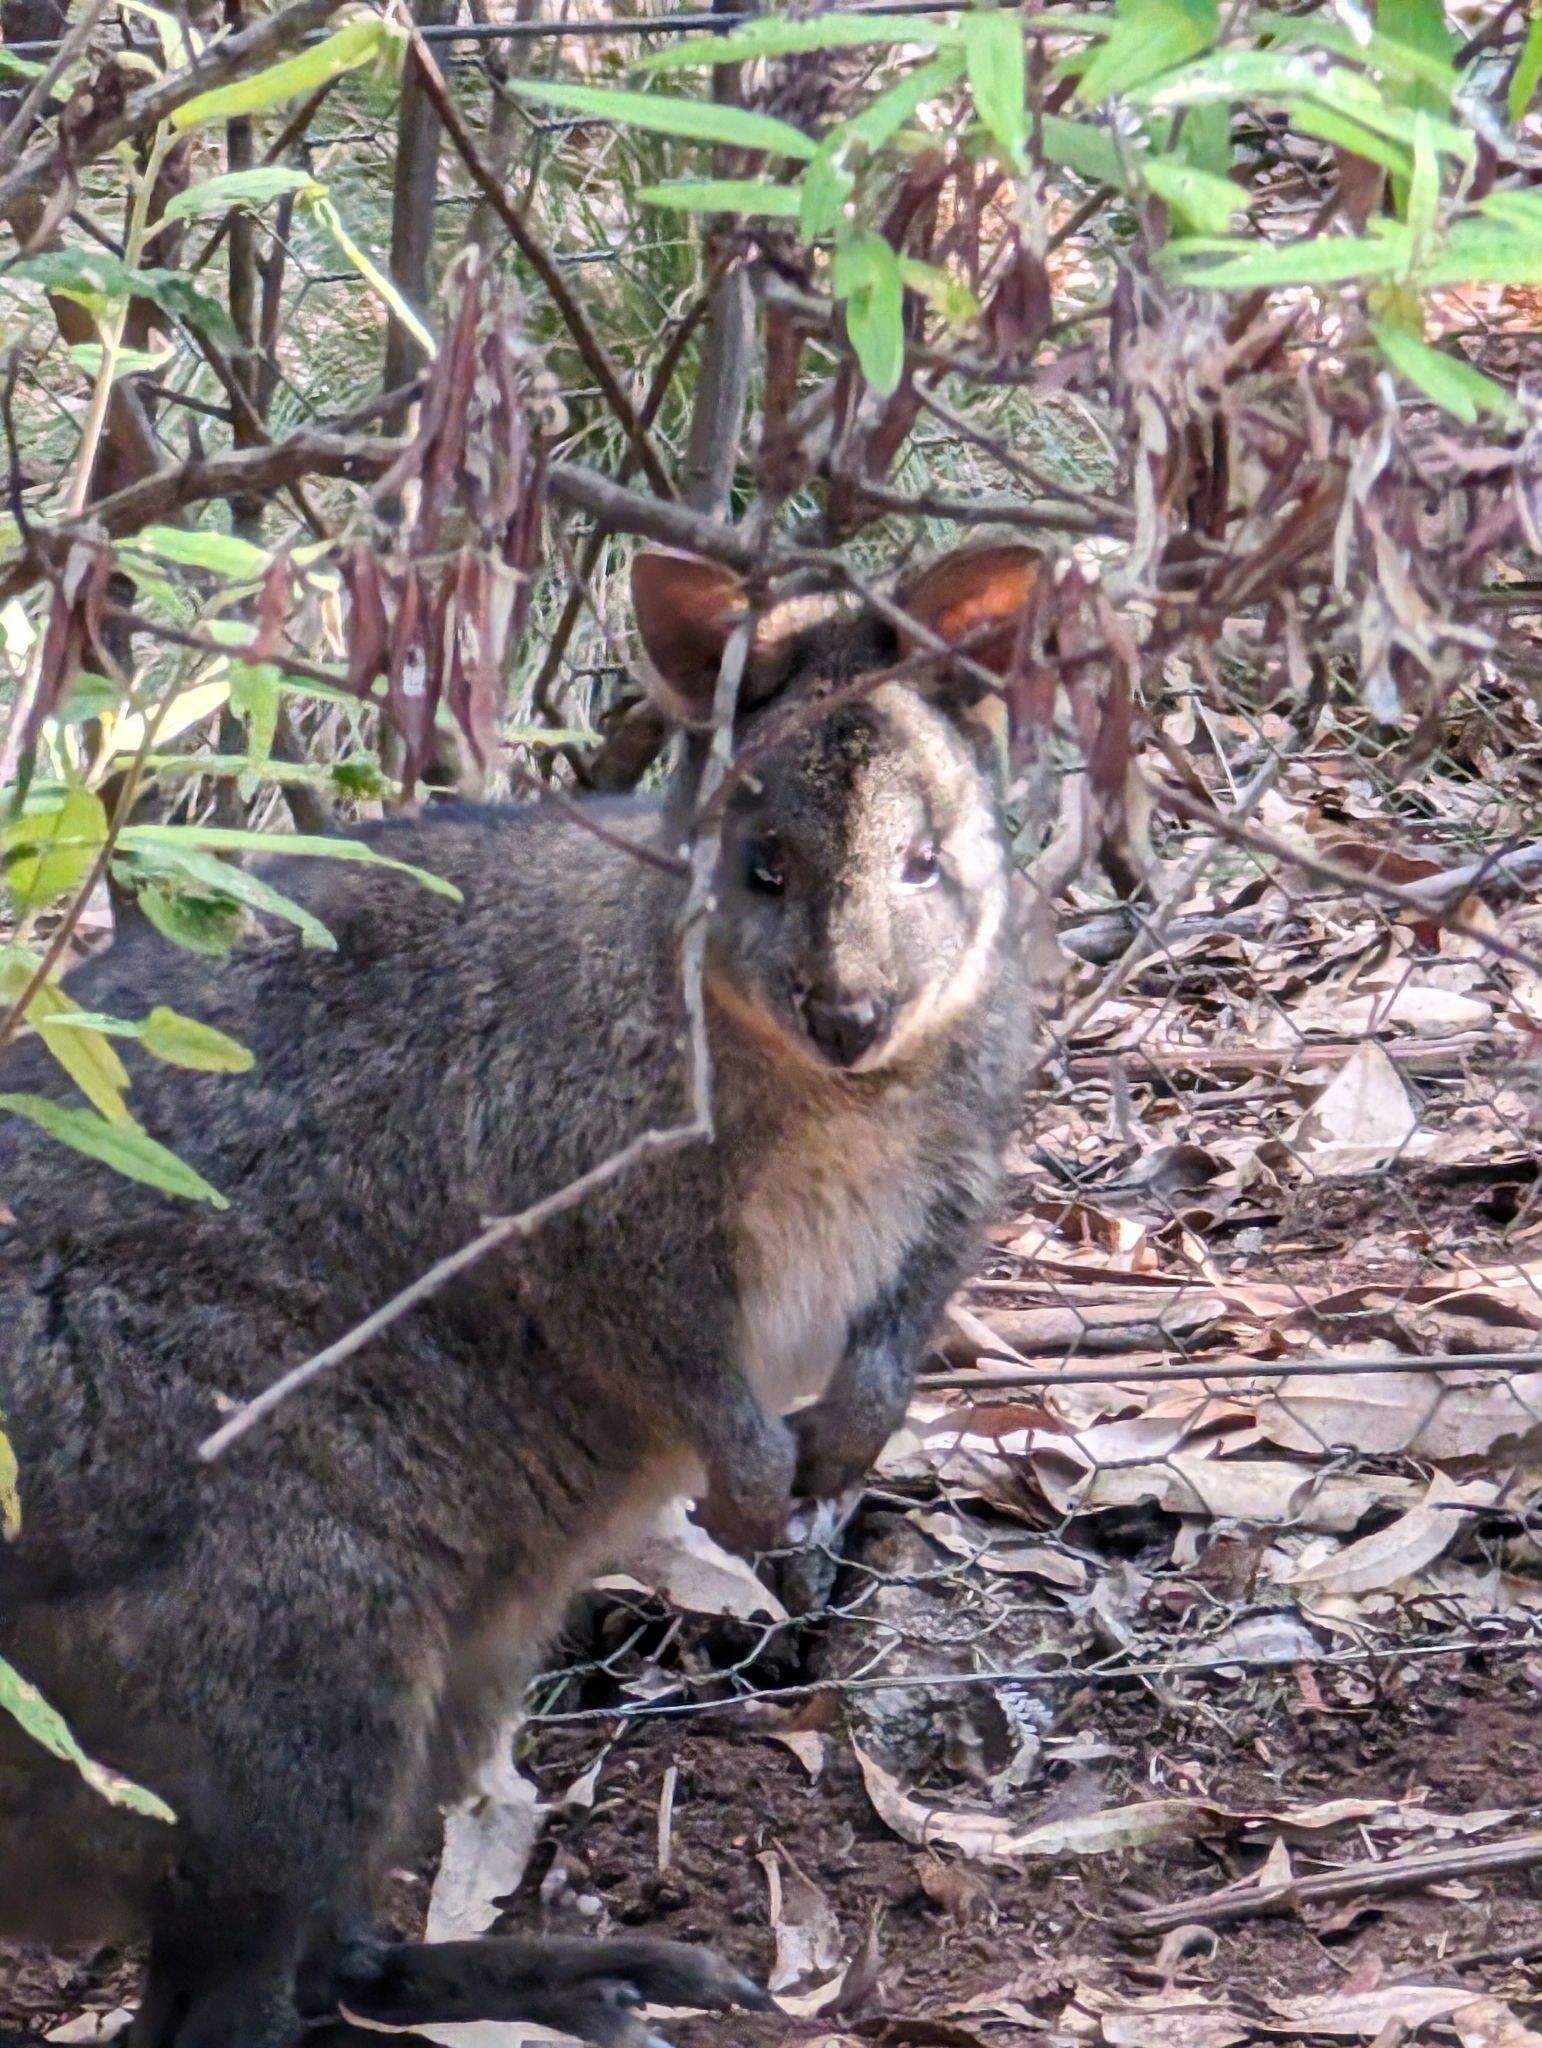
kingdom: Animalia
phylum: Chordata
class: Mammalia
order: Diprotodontia
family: Macropodidae
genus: Thylogale
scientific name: Thylogale billardierii
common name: Tasmanian pademelon
